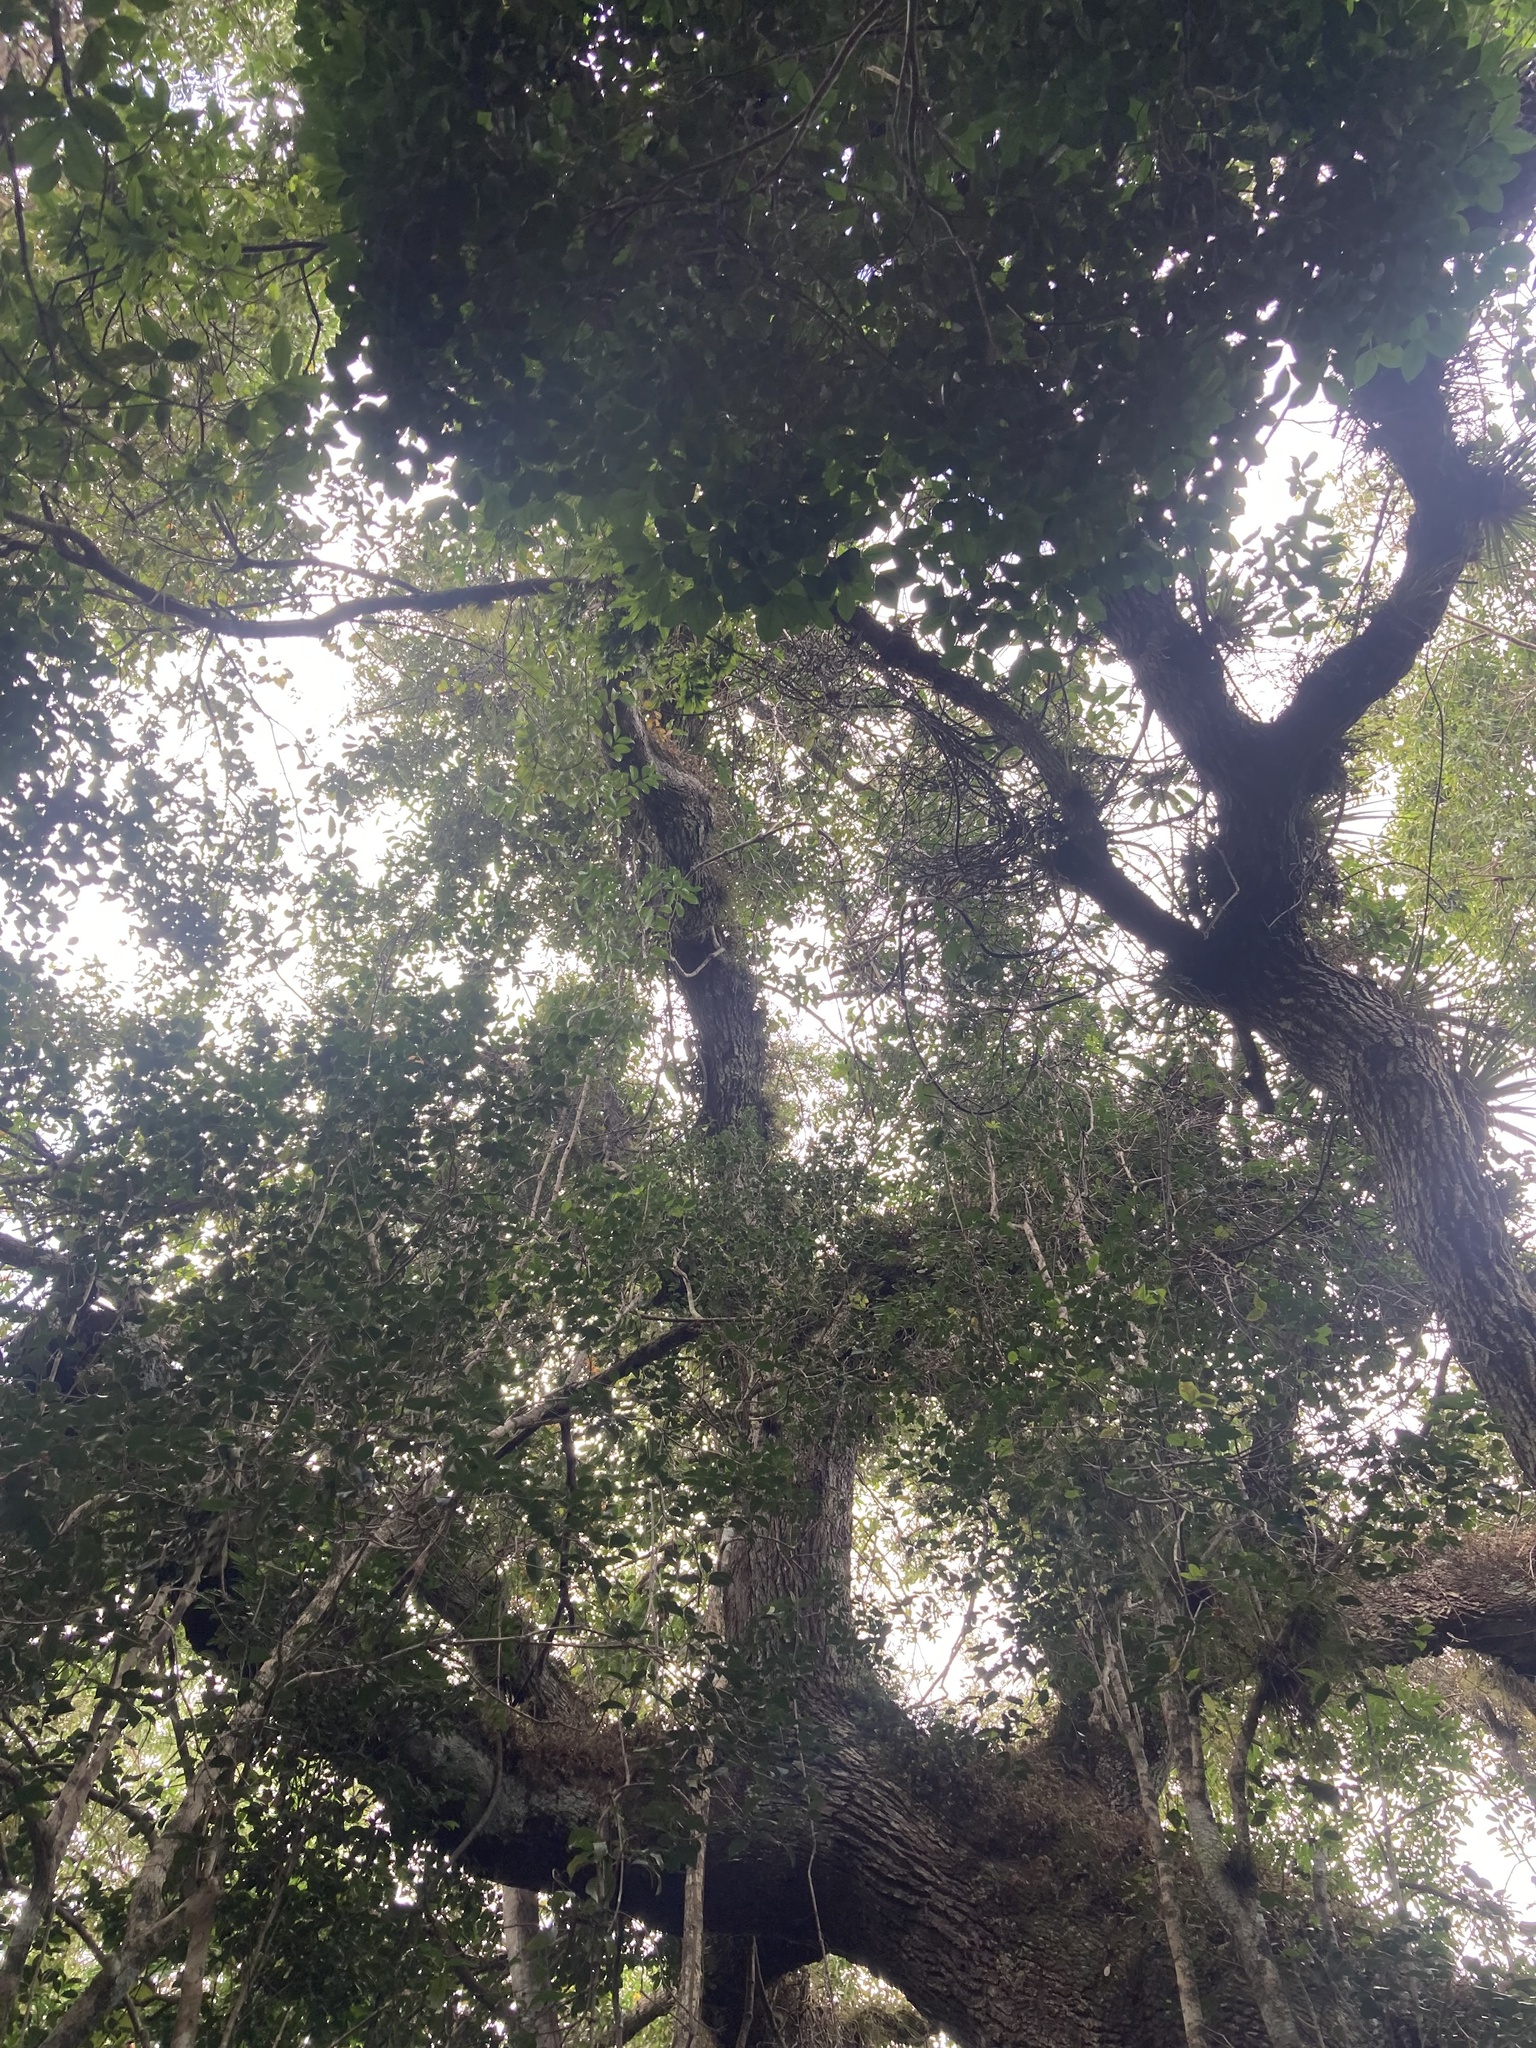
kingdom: Plantae
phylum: Tracheophyta
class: Magnoliopsida
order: Fagales
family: Fagaceae
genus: Quercus
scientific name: Quercus virginiana
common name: Southern live oak
